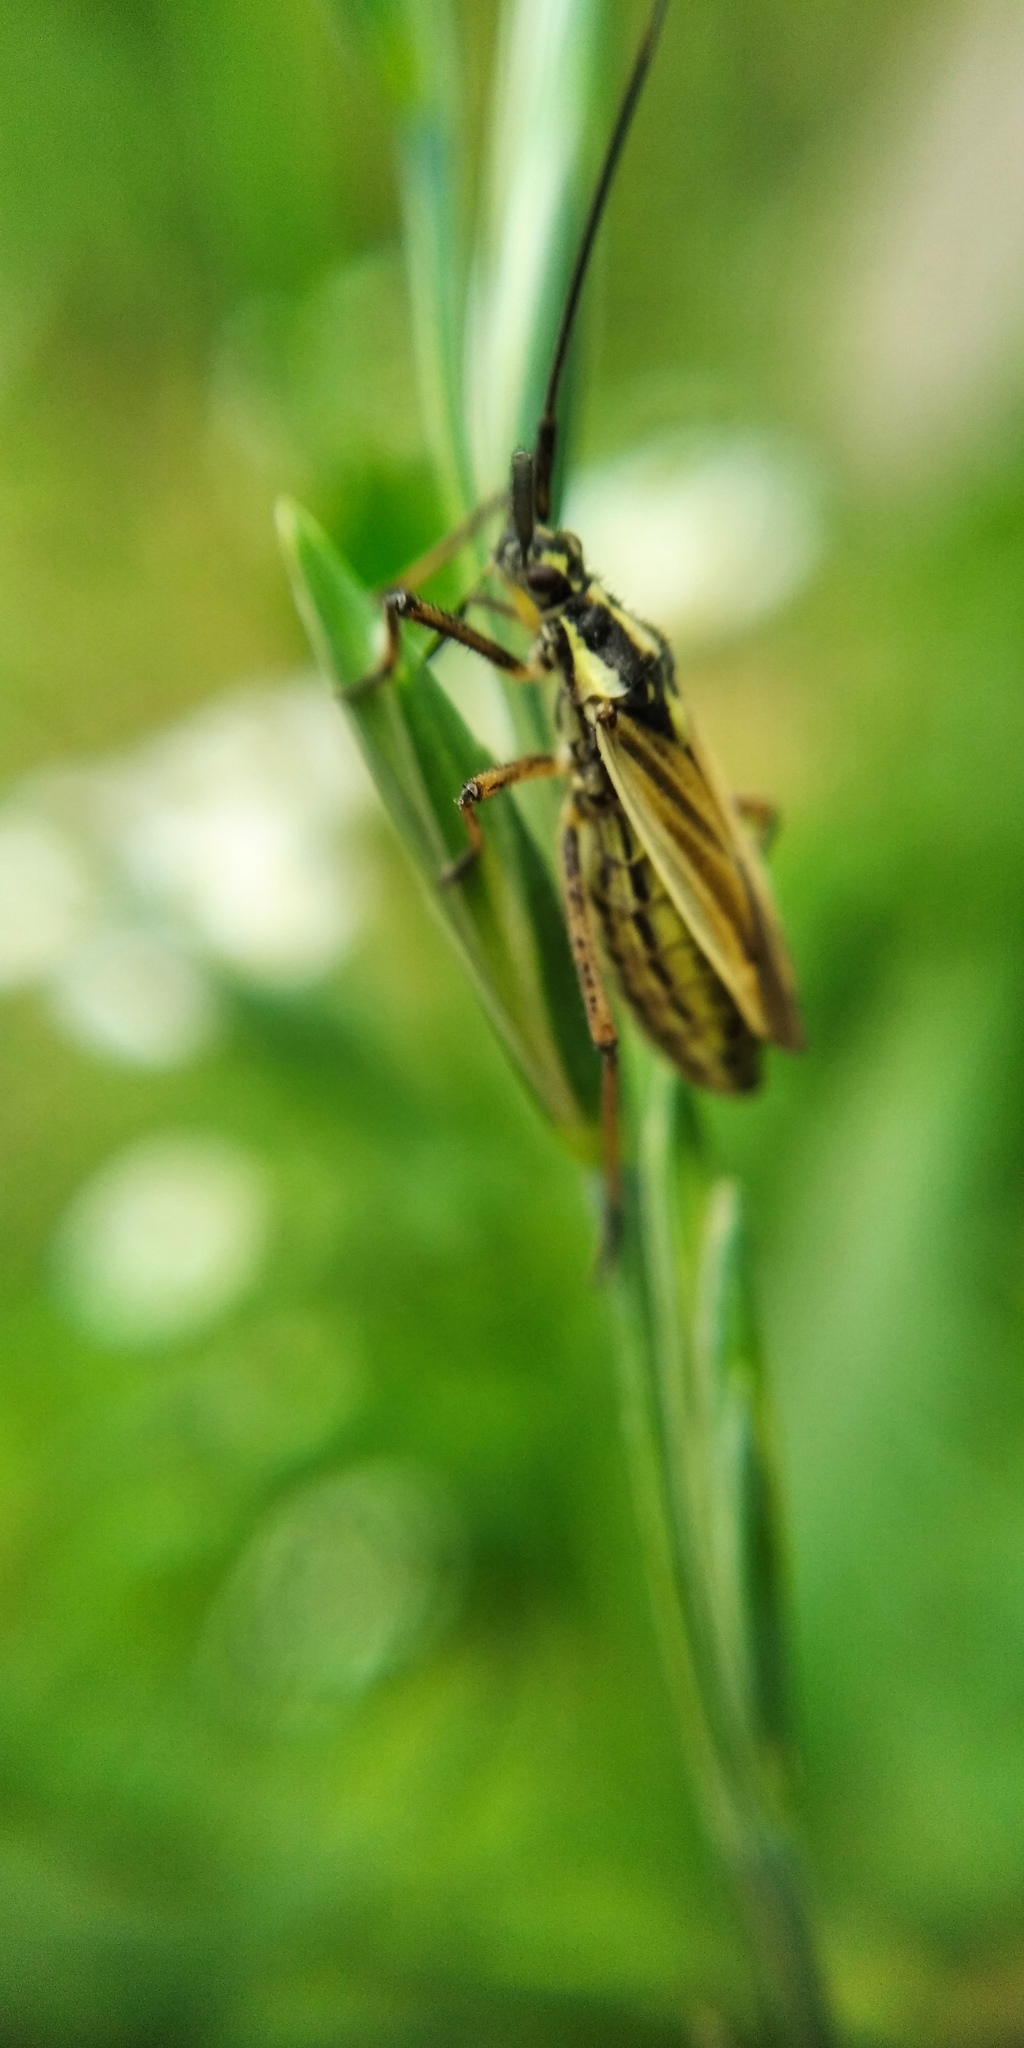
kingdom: Animalia
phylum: Arthropoda
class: Insecta
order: Hemiptera
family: Miridae
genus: Leptopterna
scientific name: Leptopterna dolabrata
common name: Meadow plant bug
